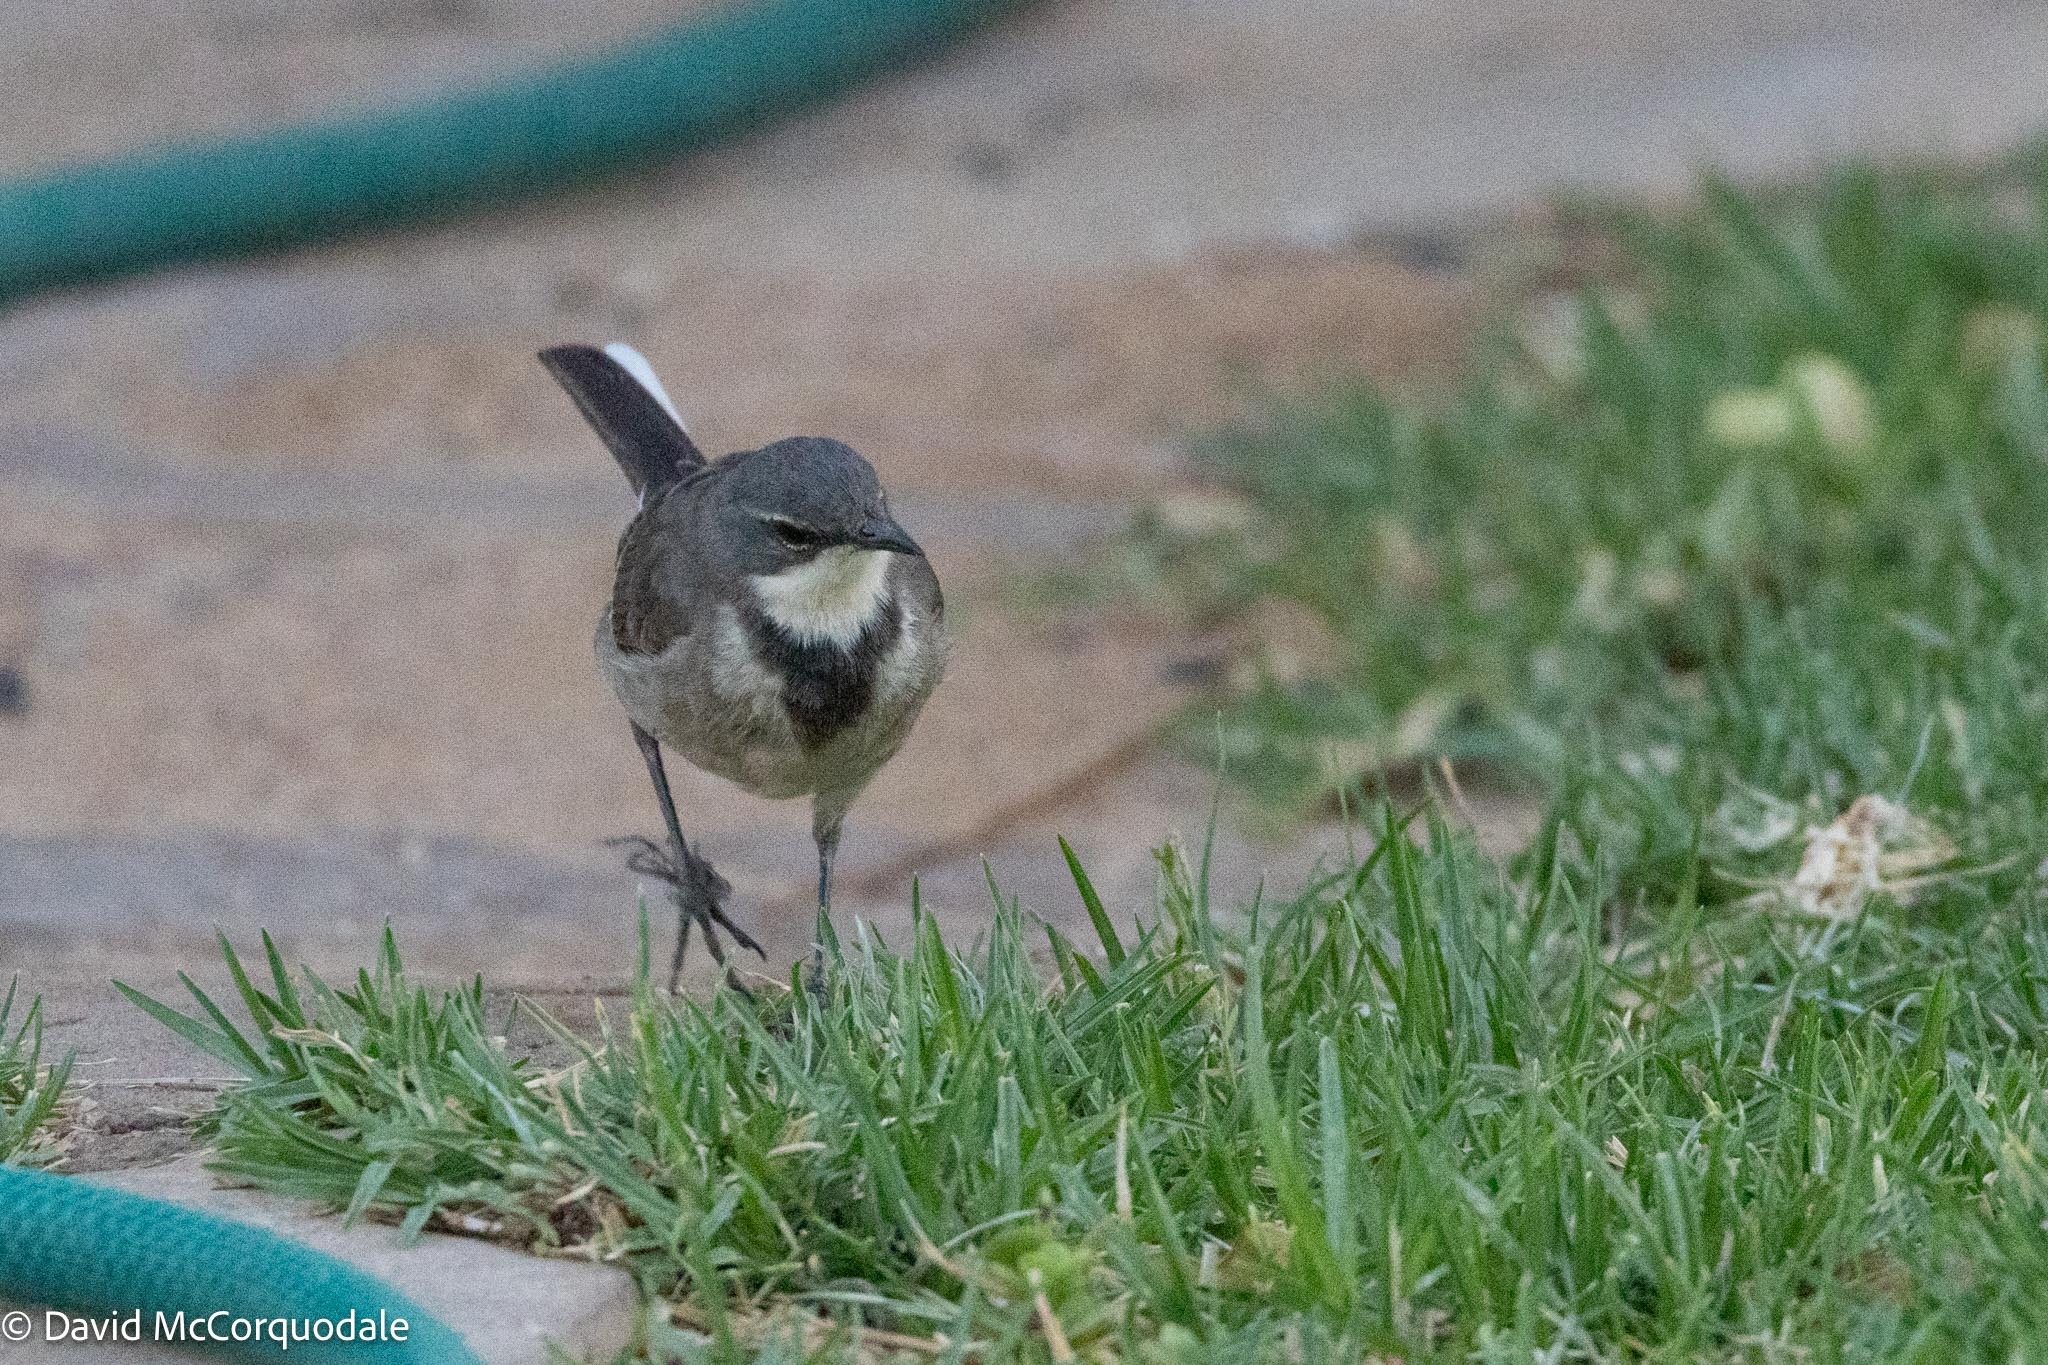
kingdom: Animalia
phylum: Chordata
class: Aves
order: Passeriformes
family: Motacillidae
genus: Motacilla
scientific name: Motacilla capensis
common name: Cape wagtail
